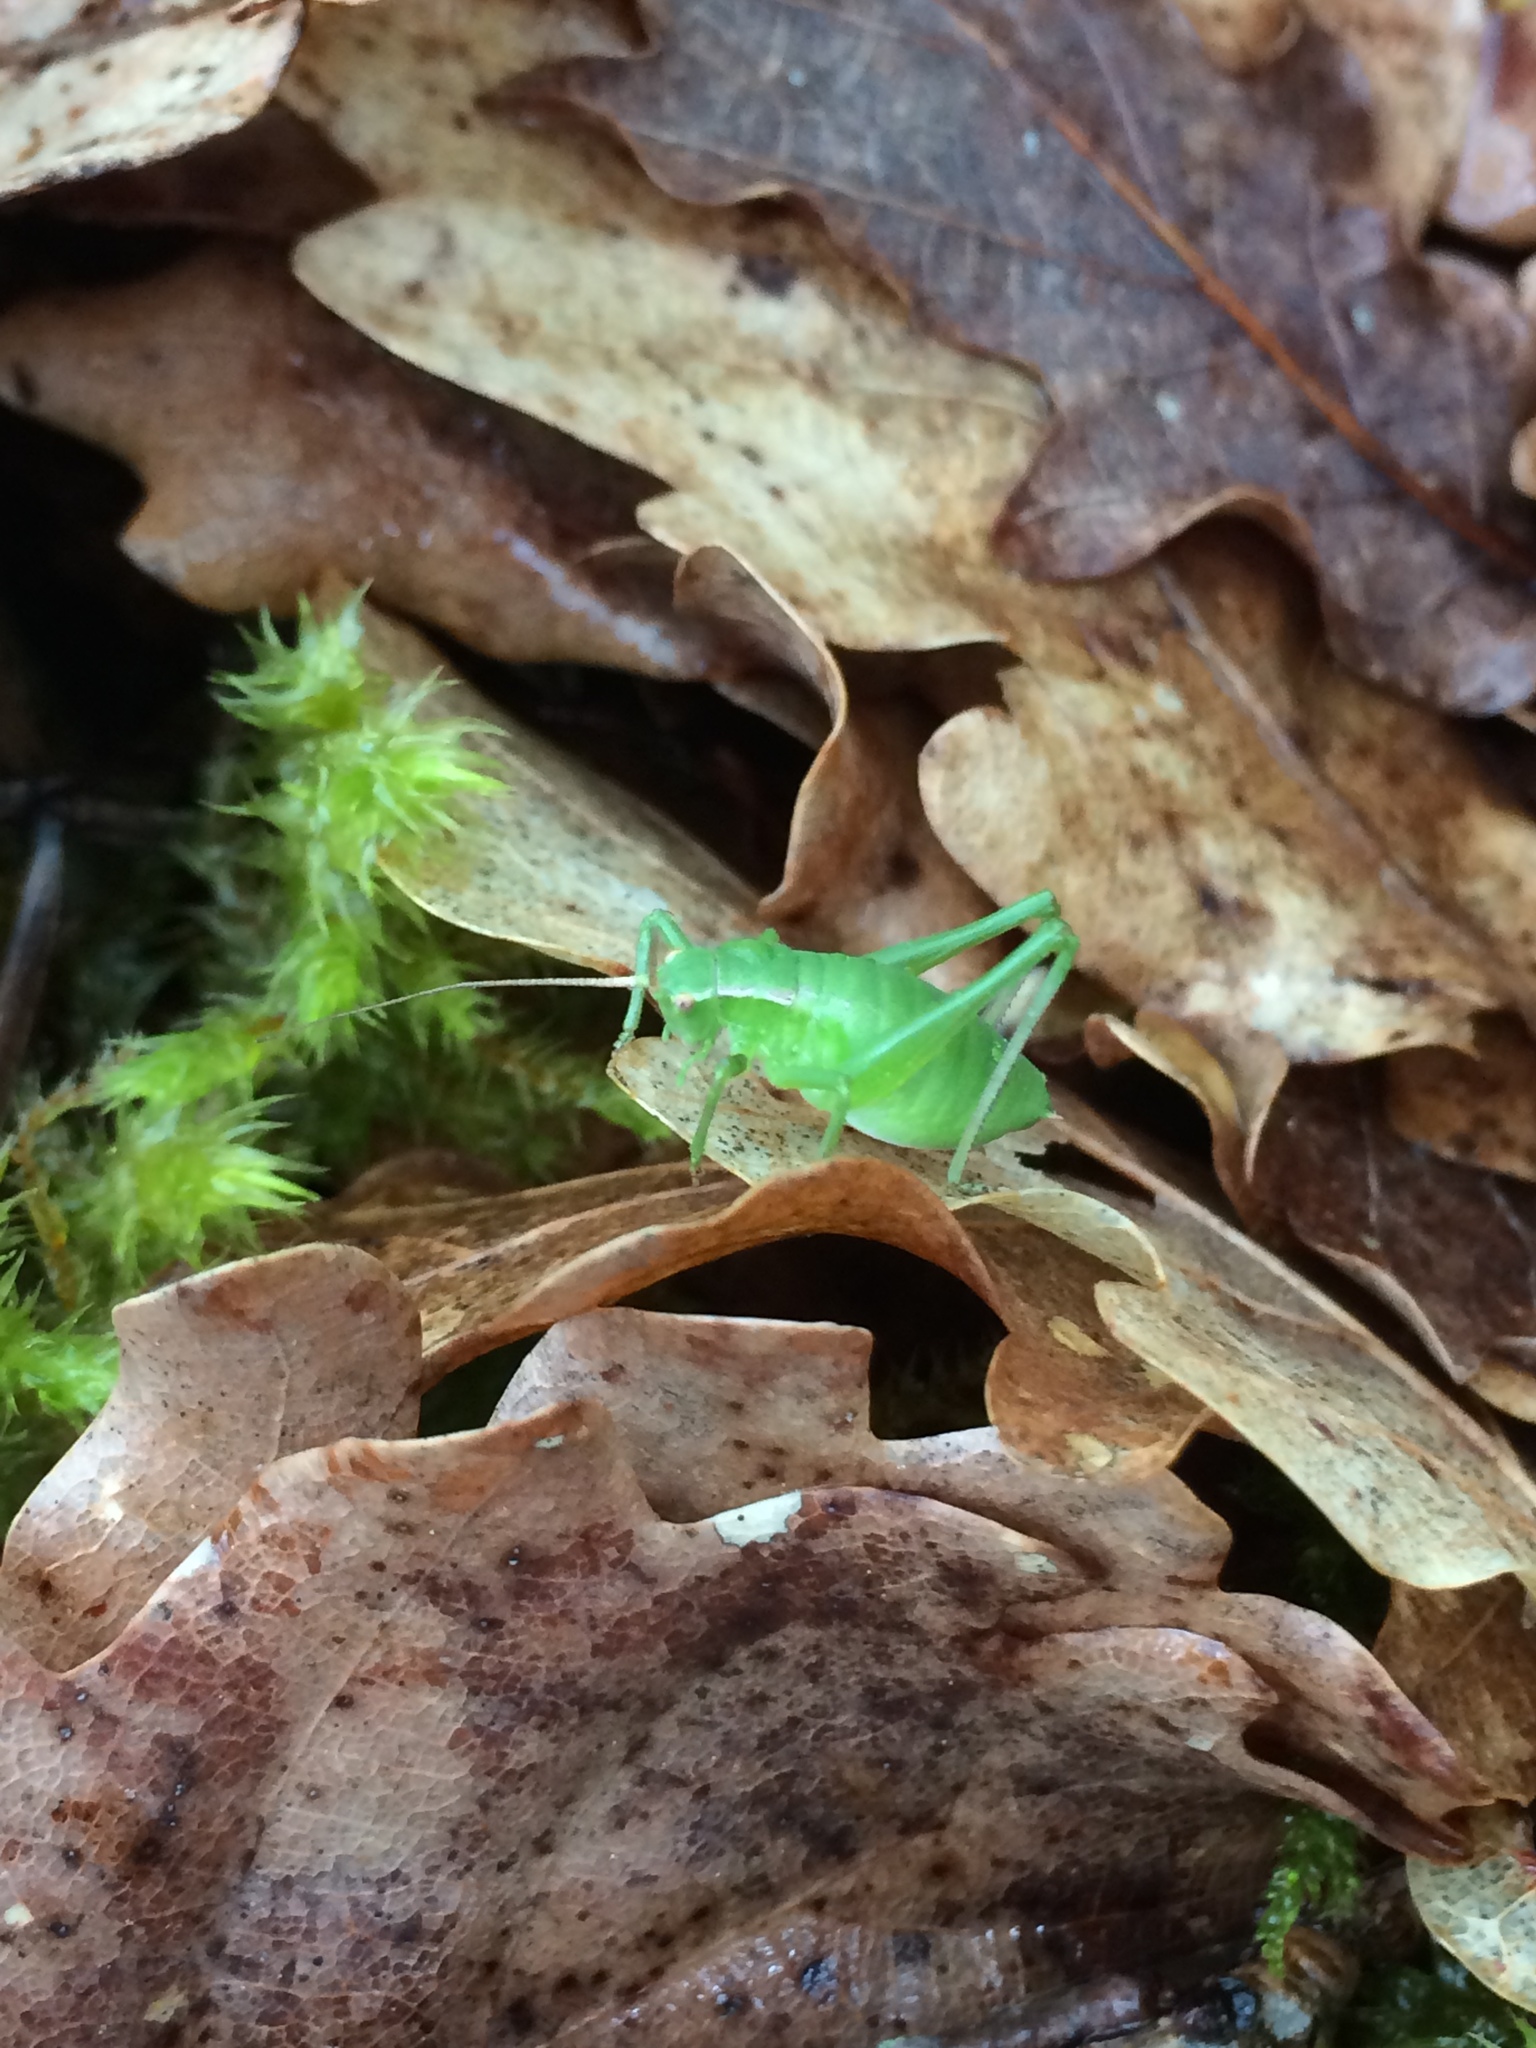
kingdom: Animalia
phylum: Arthropoda
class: Insecta
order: Orthoptera
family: Tettigoniidae
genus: Isophya
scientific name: Isophya pyrenaea
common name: Pyrenean plump bush-cricket
